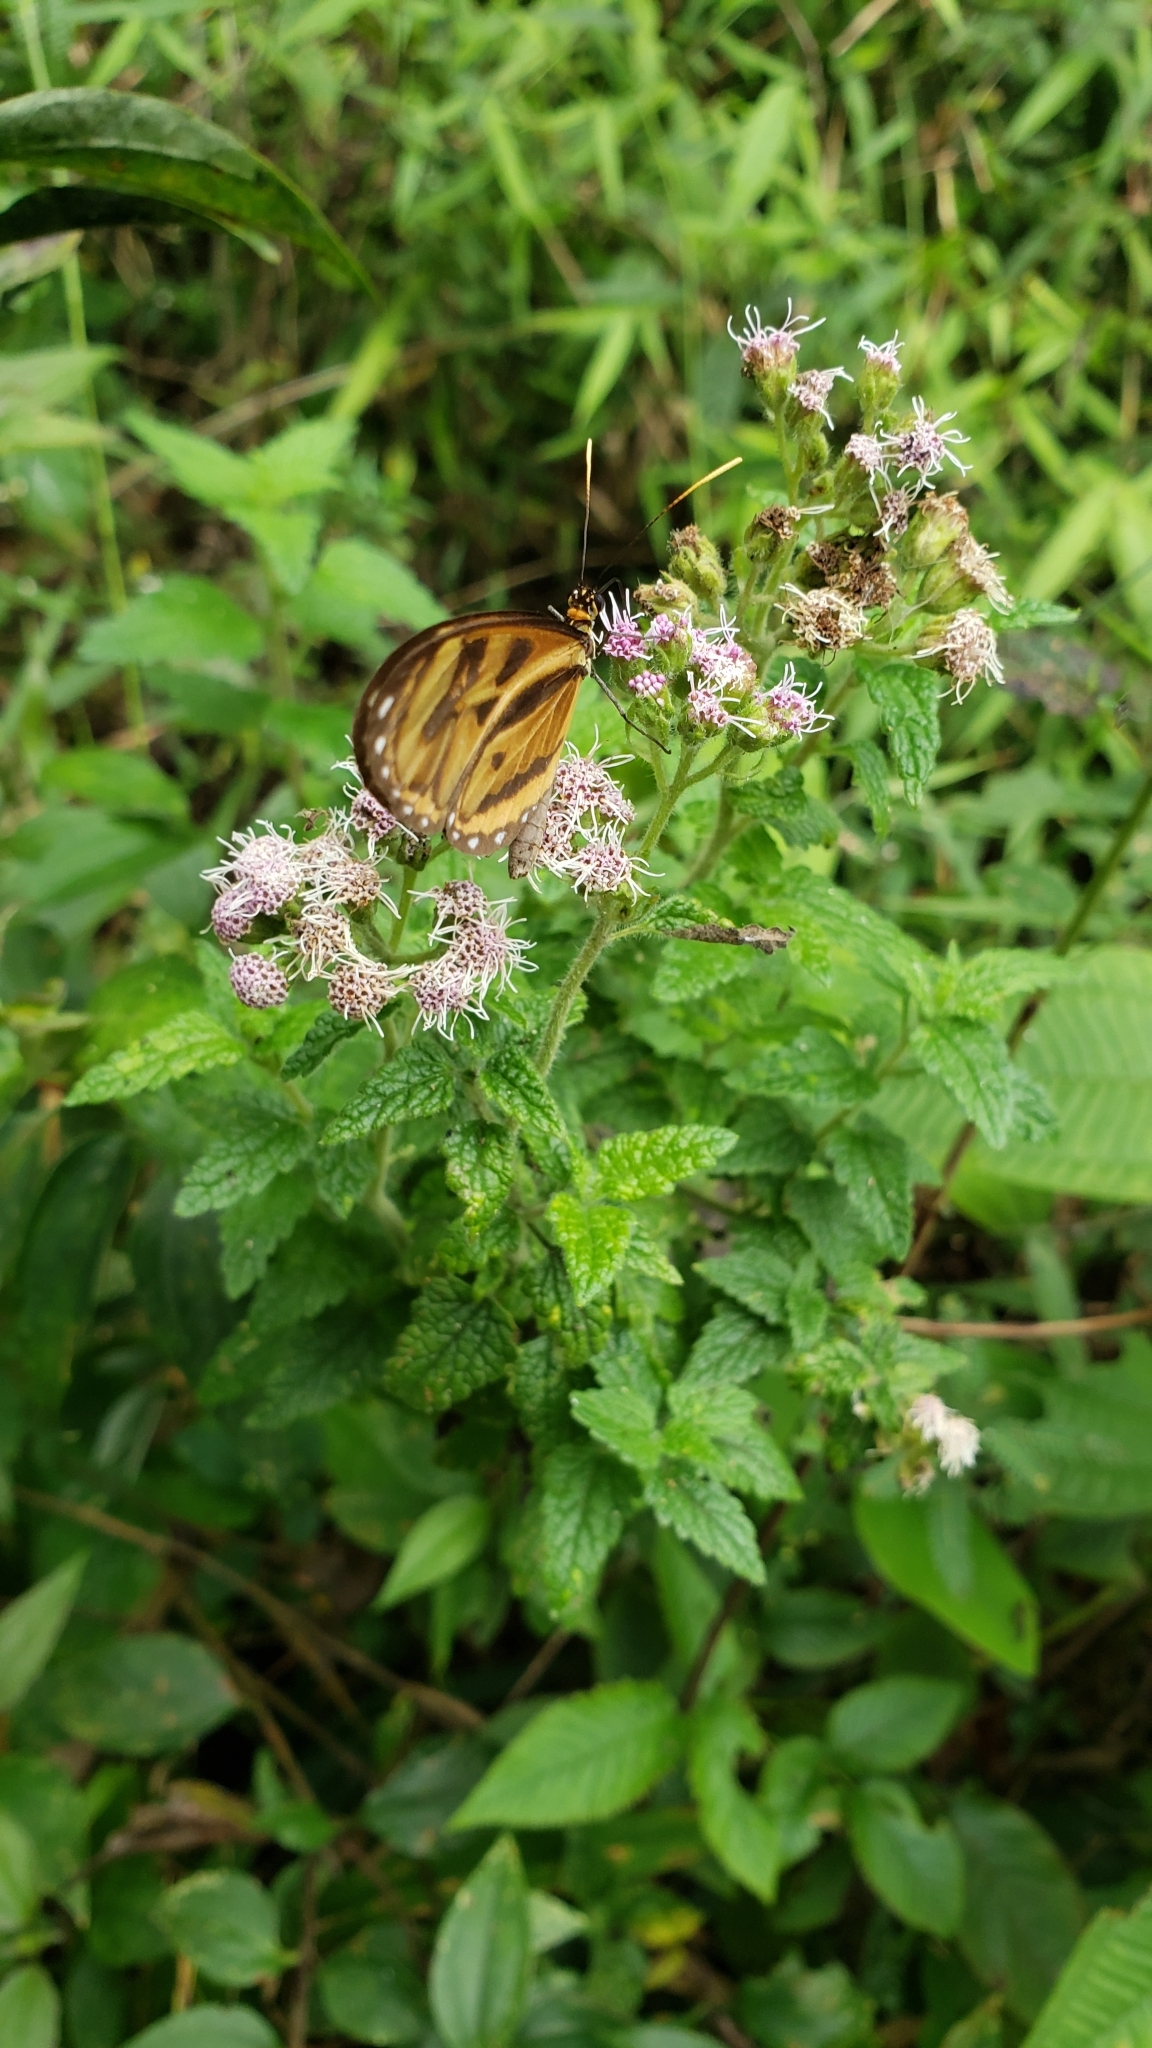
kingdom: Animalia
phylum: Arthropoda
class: Insecta
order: Lepidoptera
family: Nymphalidae
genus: Ithomia
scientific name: Ithomia iphianassa
